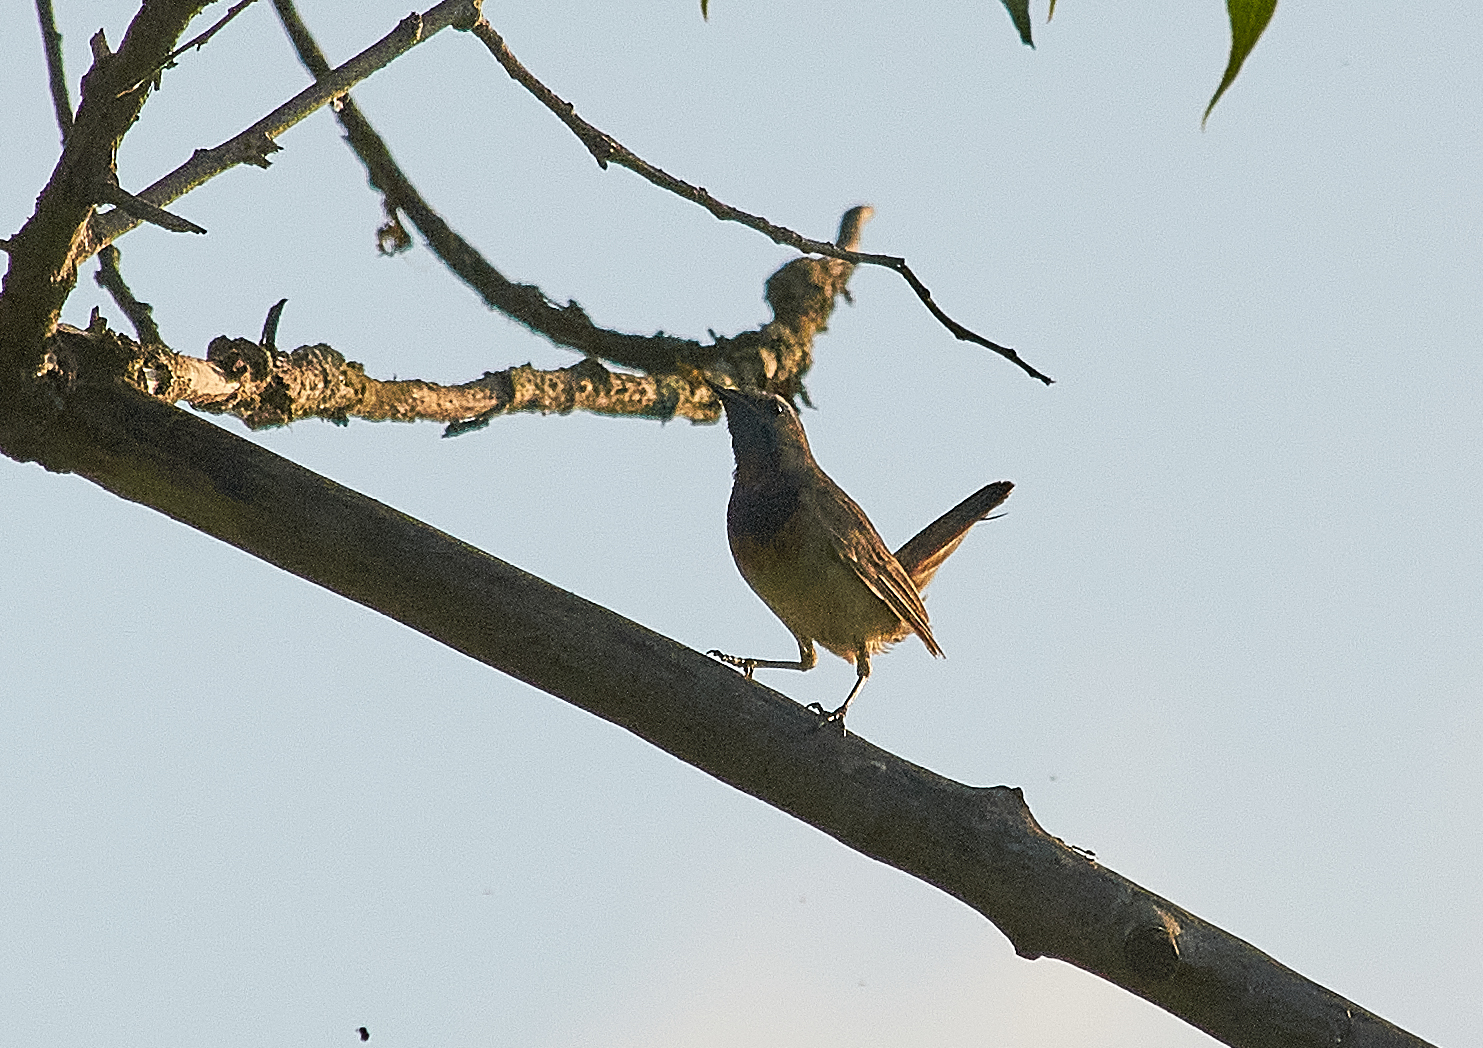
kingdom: Animalia
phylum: Chordata
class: Aves
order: Passeriformes
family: Muscicapidae
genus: Luscinia
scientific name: Luscinia svecica
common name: Bluethroat
